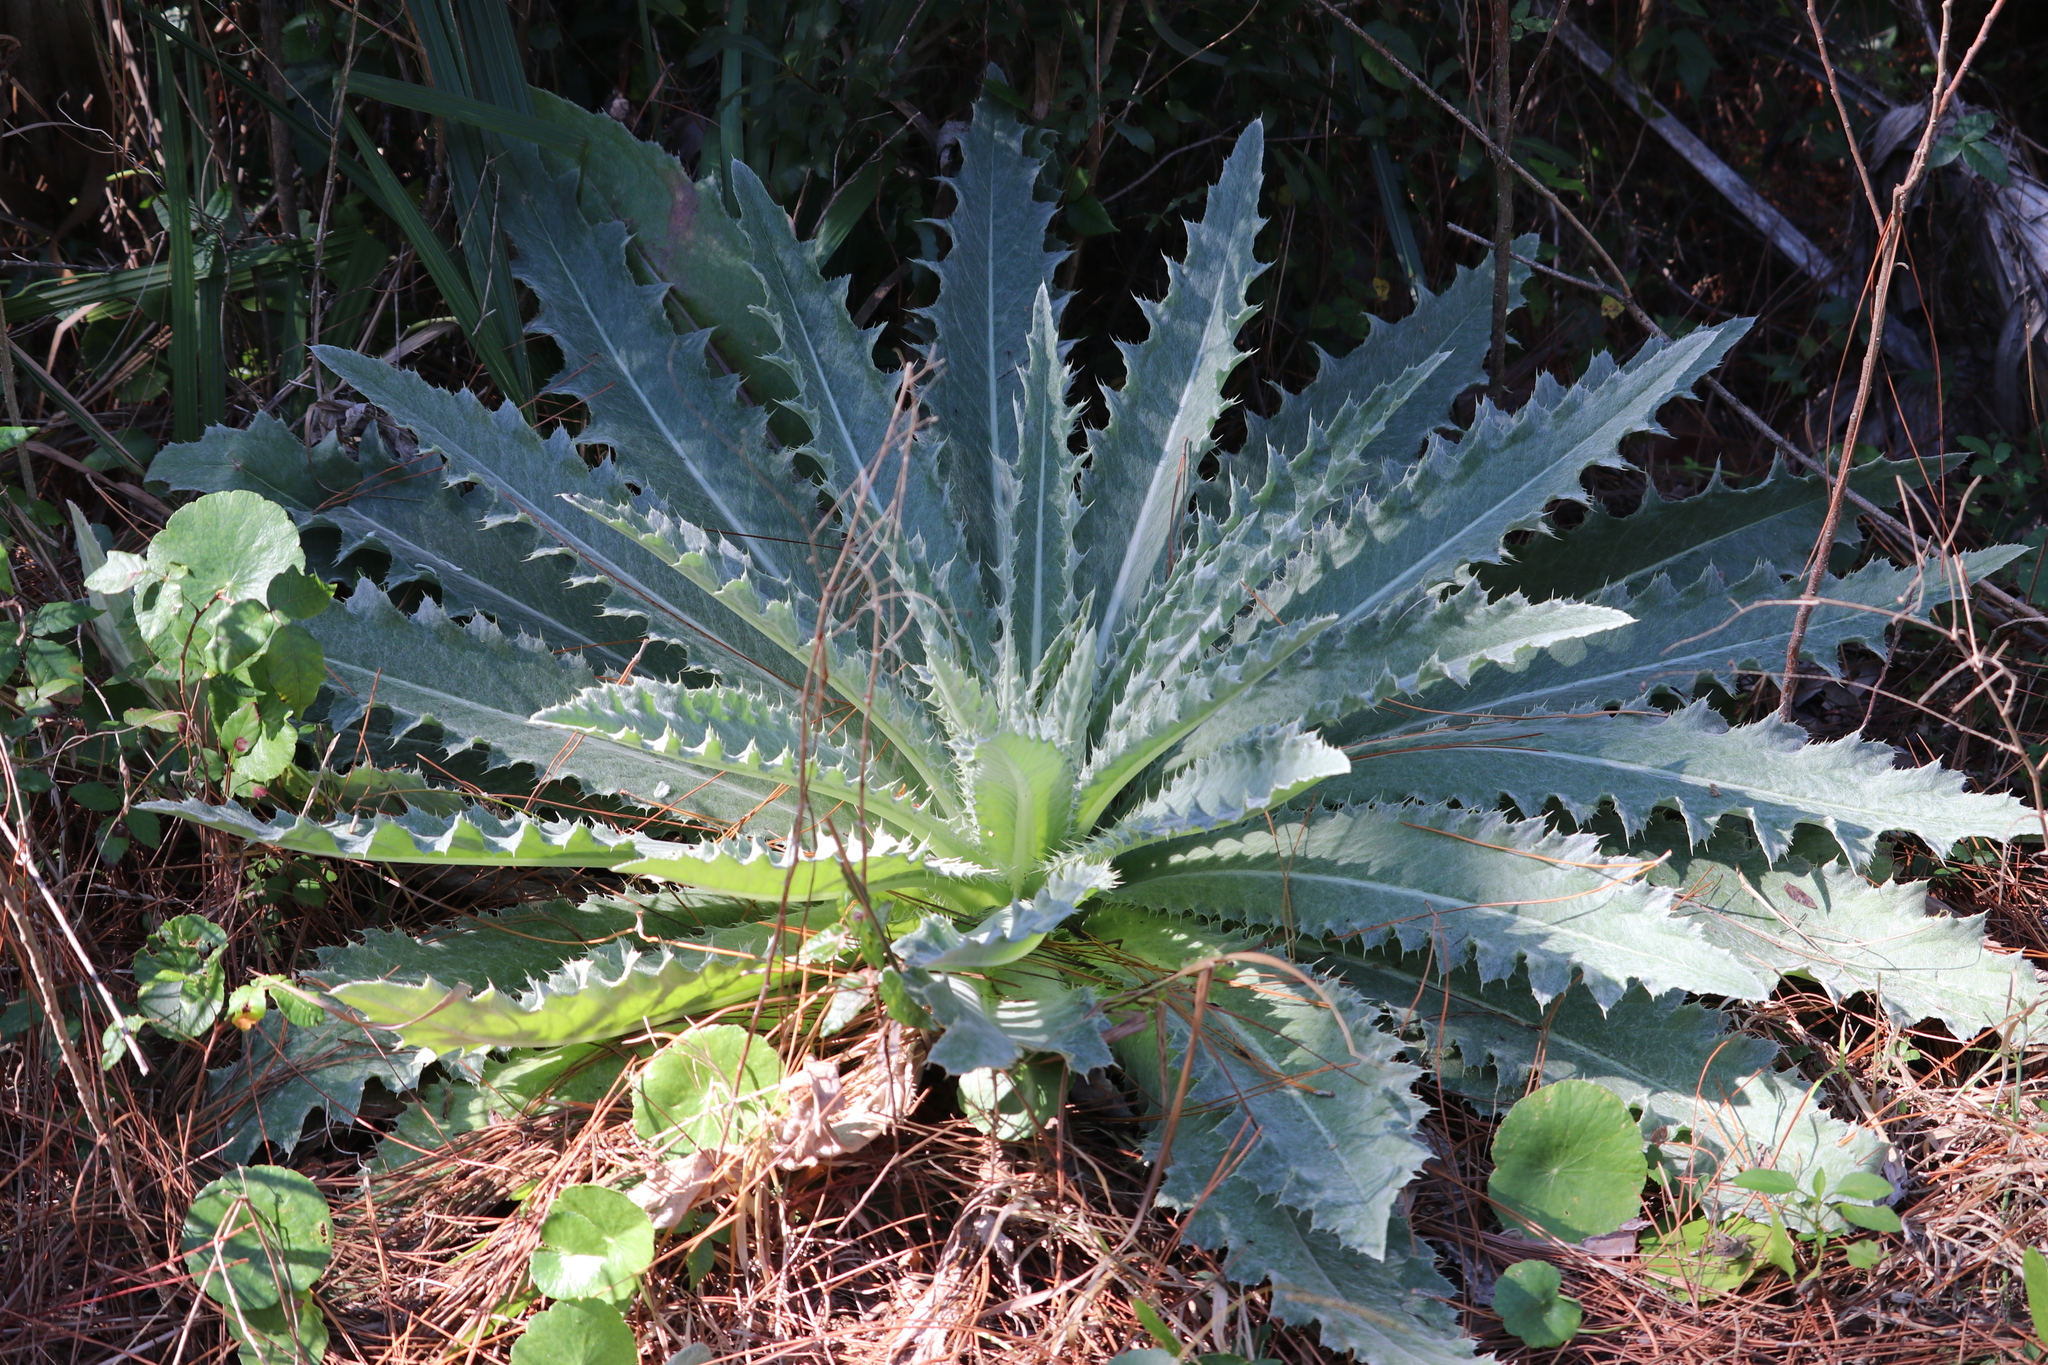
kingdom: Plantae
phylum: Tracheophyta
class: Magnoliopsida
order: Asterales
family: Asteraceae
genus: Cirsium
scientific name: Cirsium horridulum
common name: Bristly thistle
